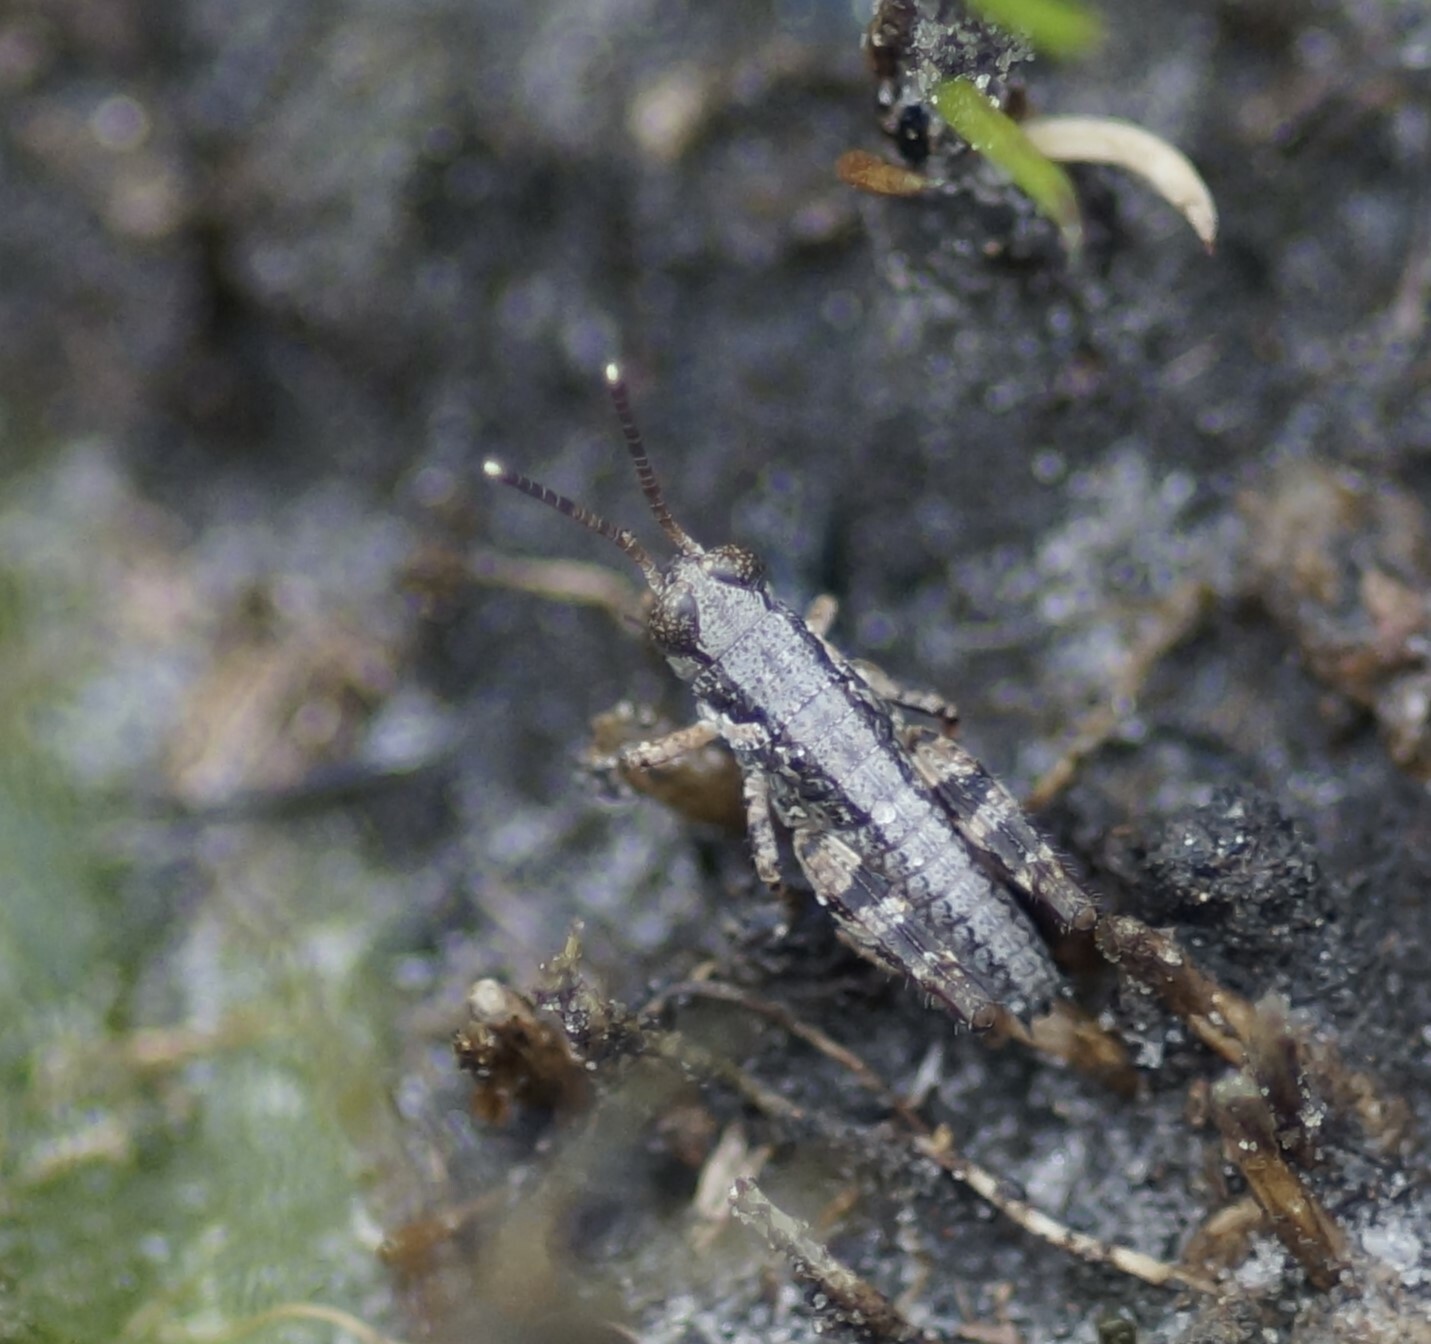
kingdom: Animalia
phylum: Arthropoda
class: Insecta
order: Orthoptera
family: Acrididae
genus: Phaulacridium
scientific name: Phaulacridium vittatum
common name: Wingless grasshopper
